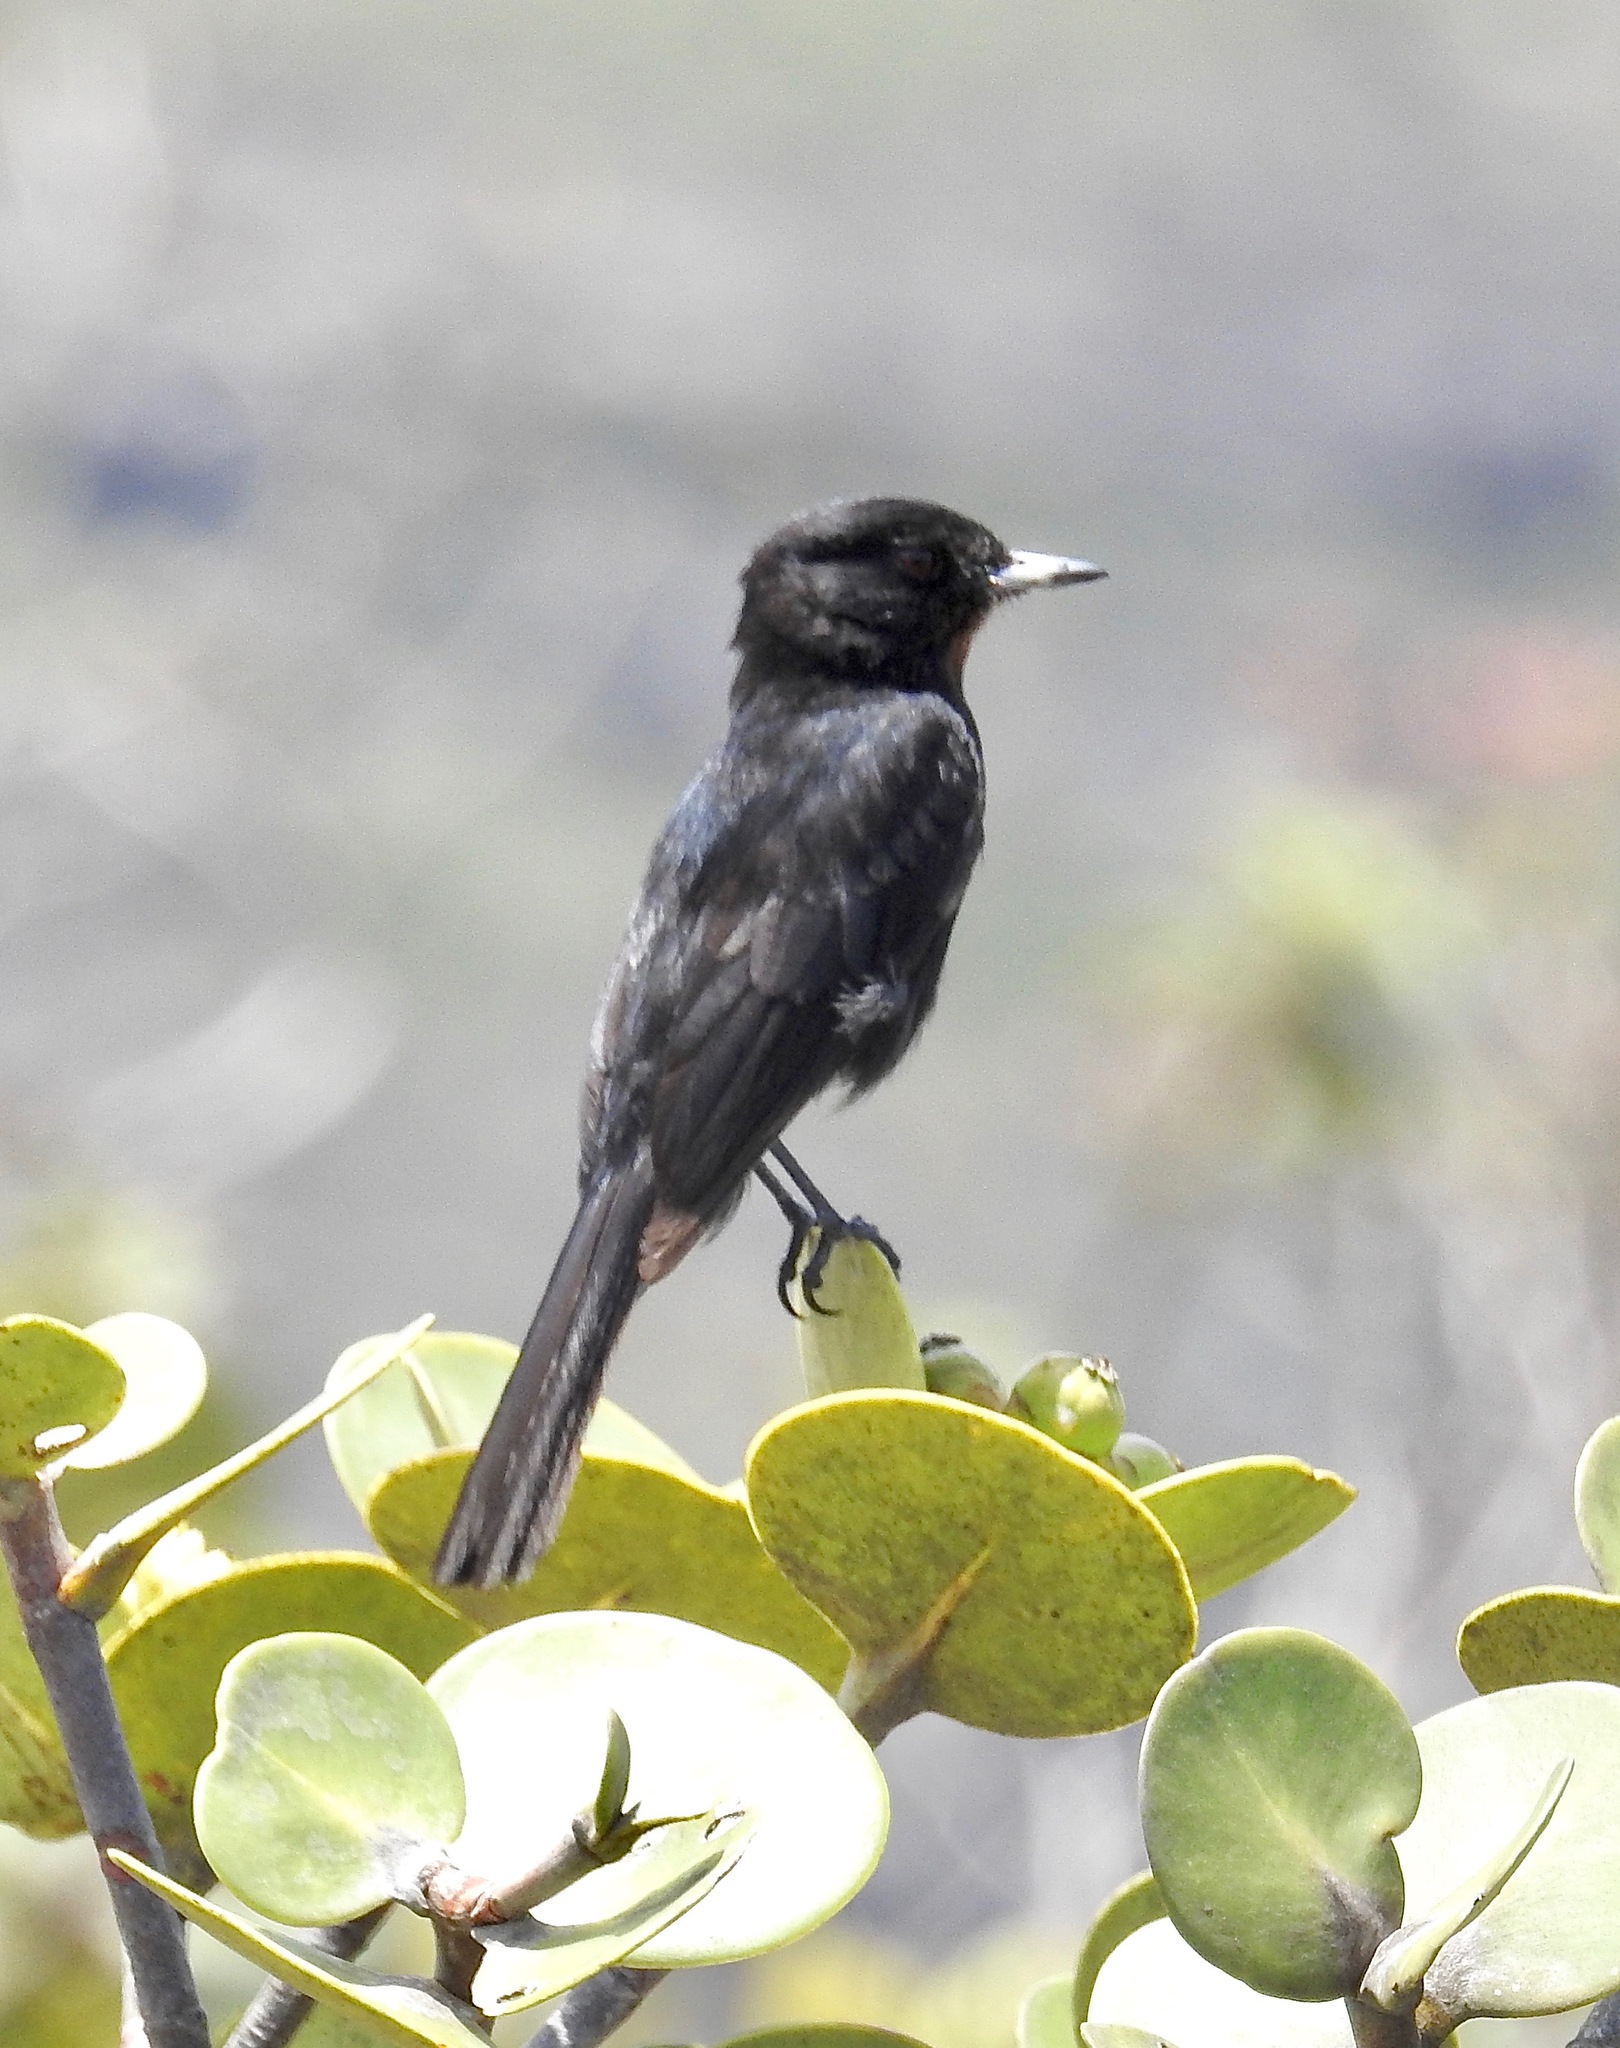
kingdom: Animalia
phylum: Chordata
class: Aves
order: Passeriformes
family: Tyrannidae
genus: Knipolegus
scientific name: Knipolegus nigerrimus
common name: Velvety black tyrant
